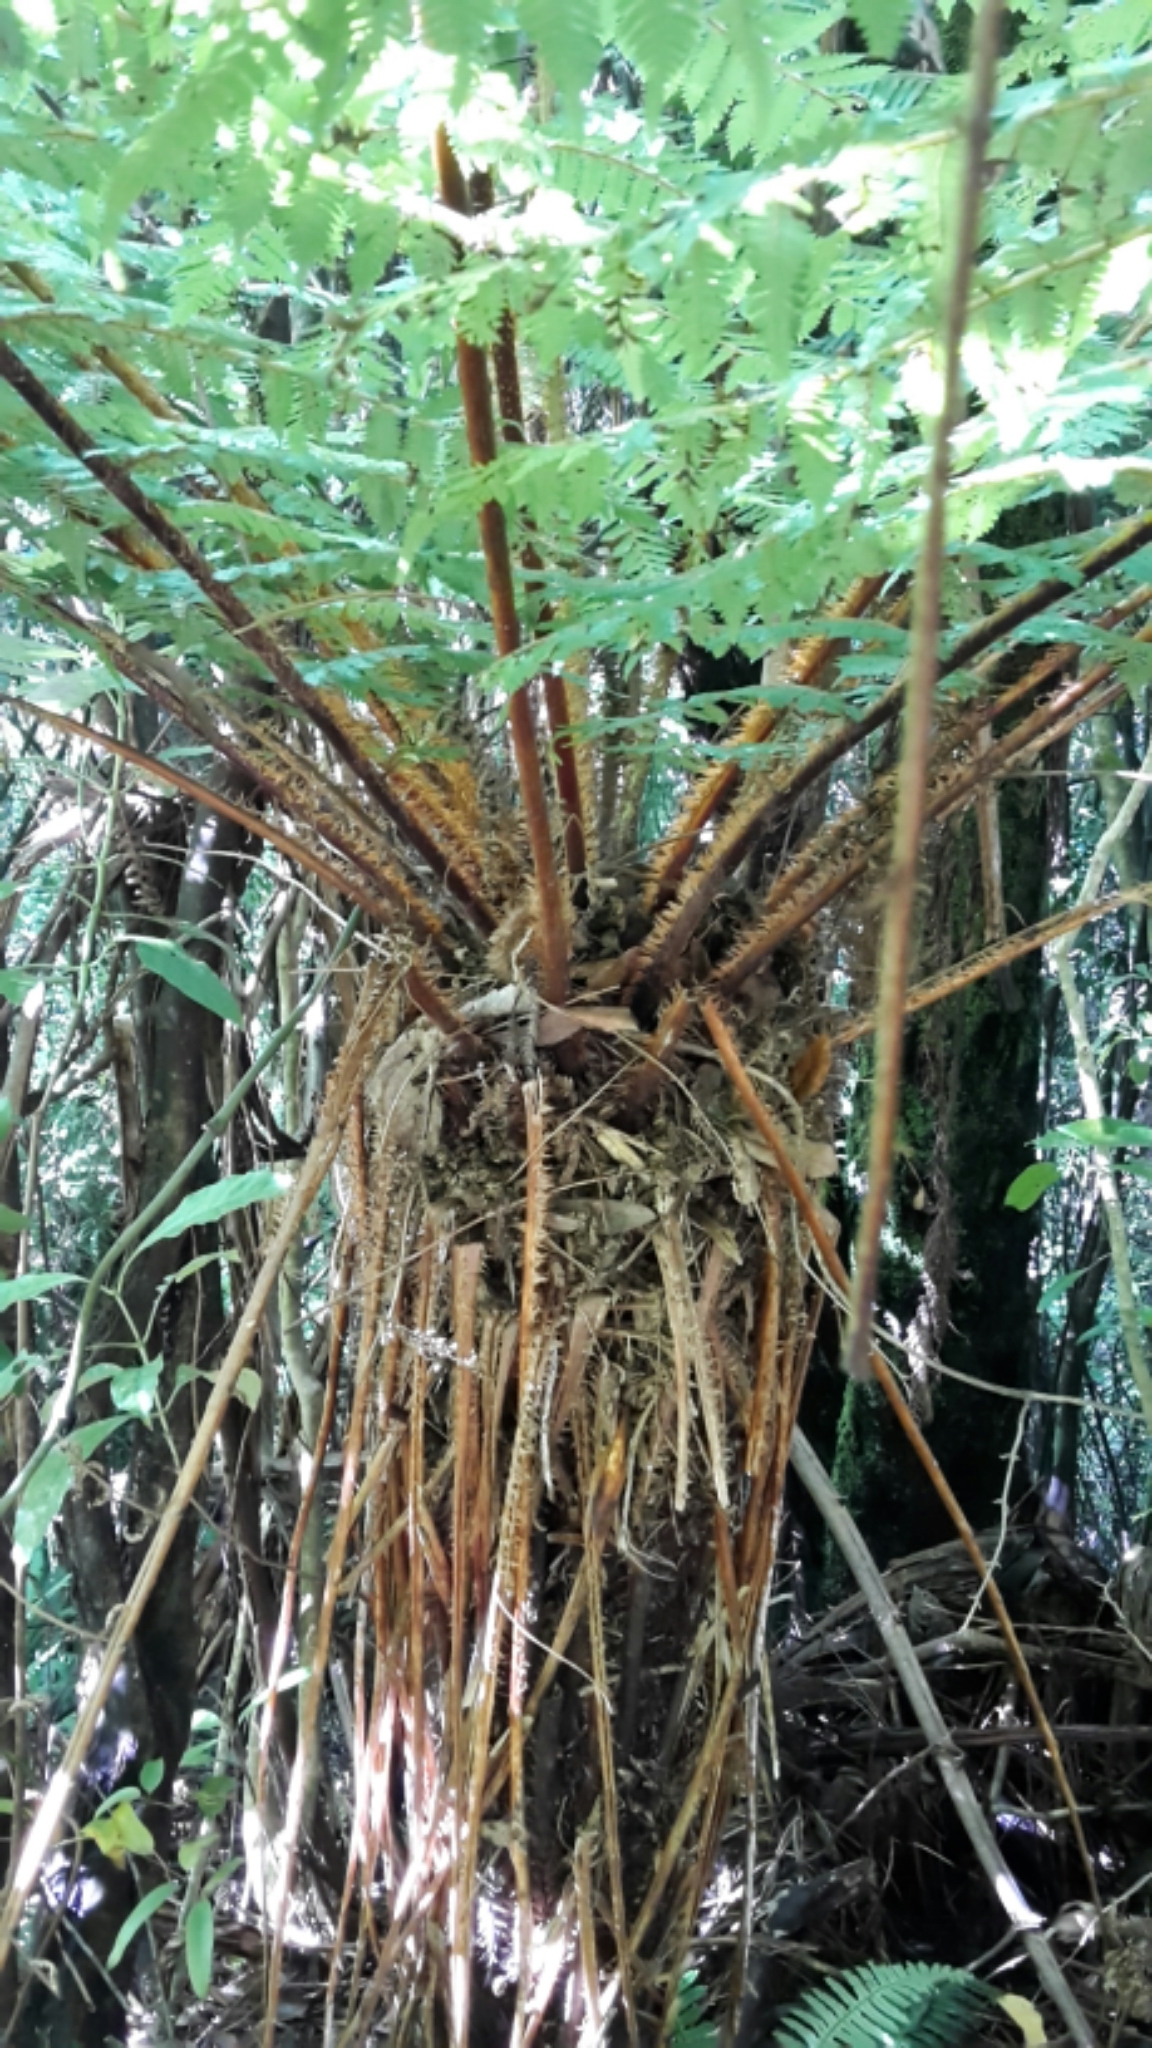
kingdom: Plantae
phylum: Tracheophyta
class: Polypodiopsida
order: Cyatheales
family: Cyatheaceae
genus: Alsophila
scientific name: Alsophila smithii
